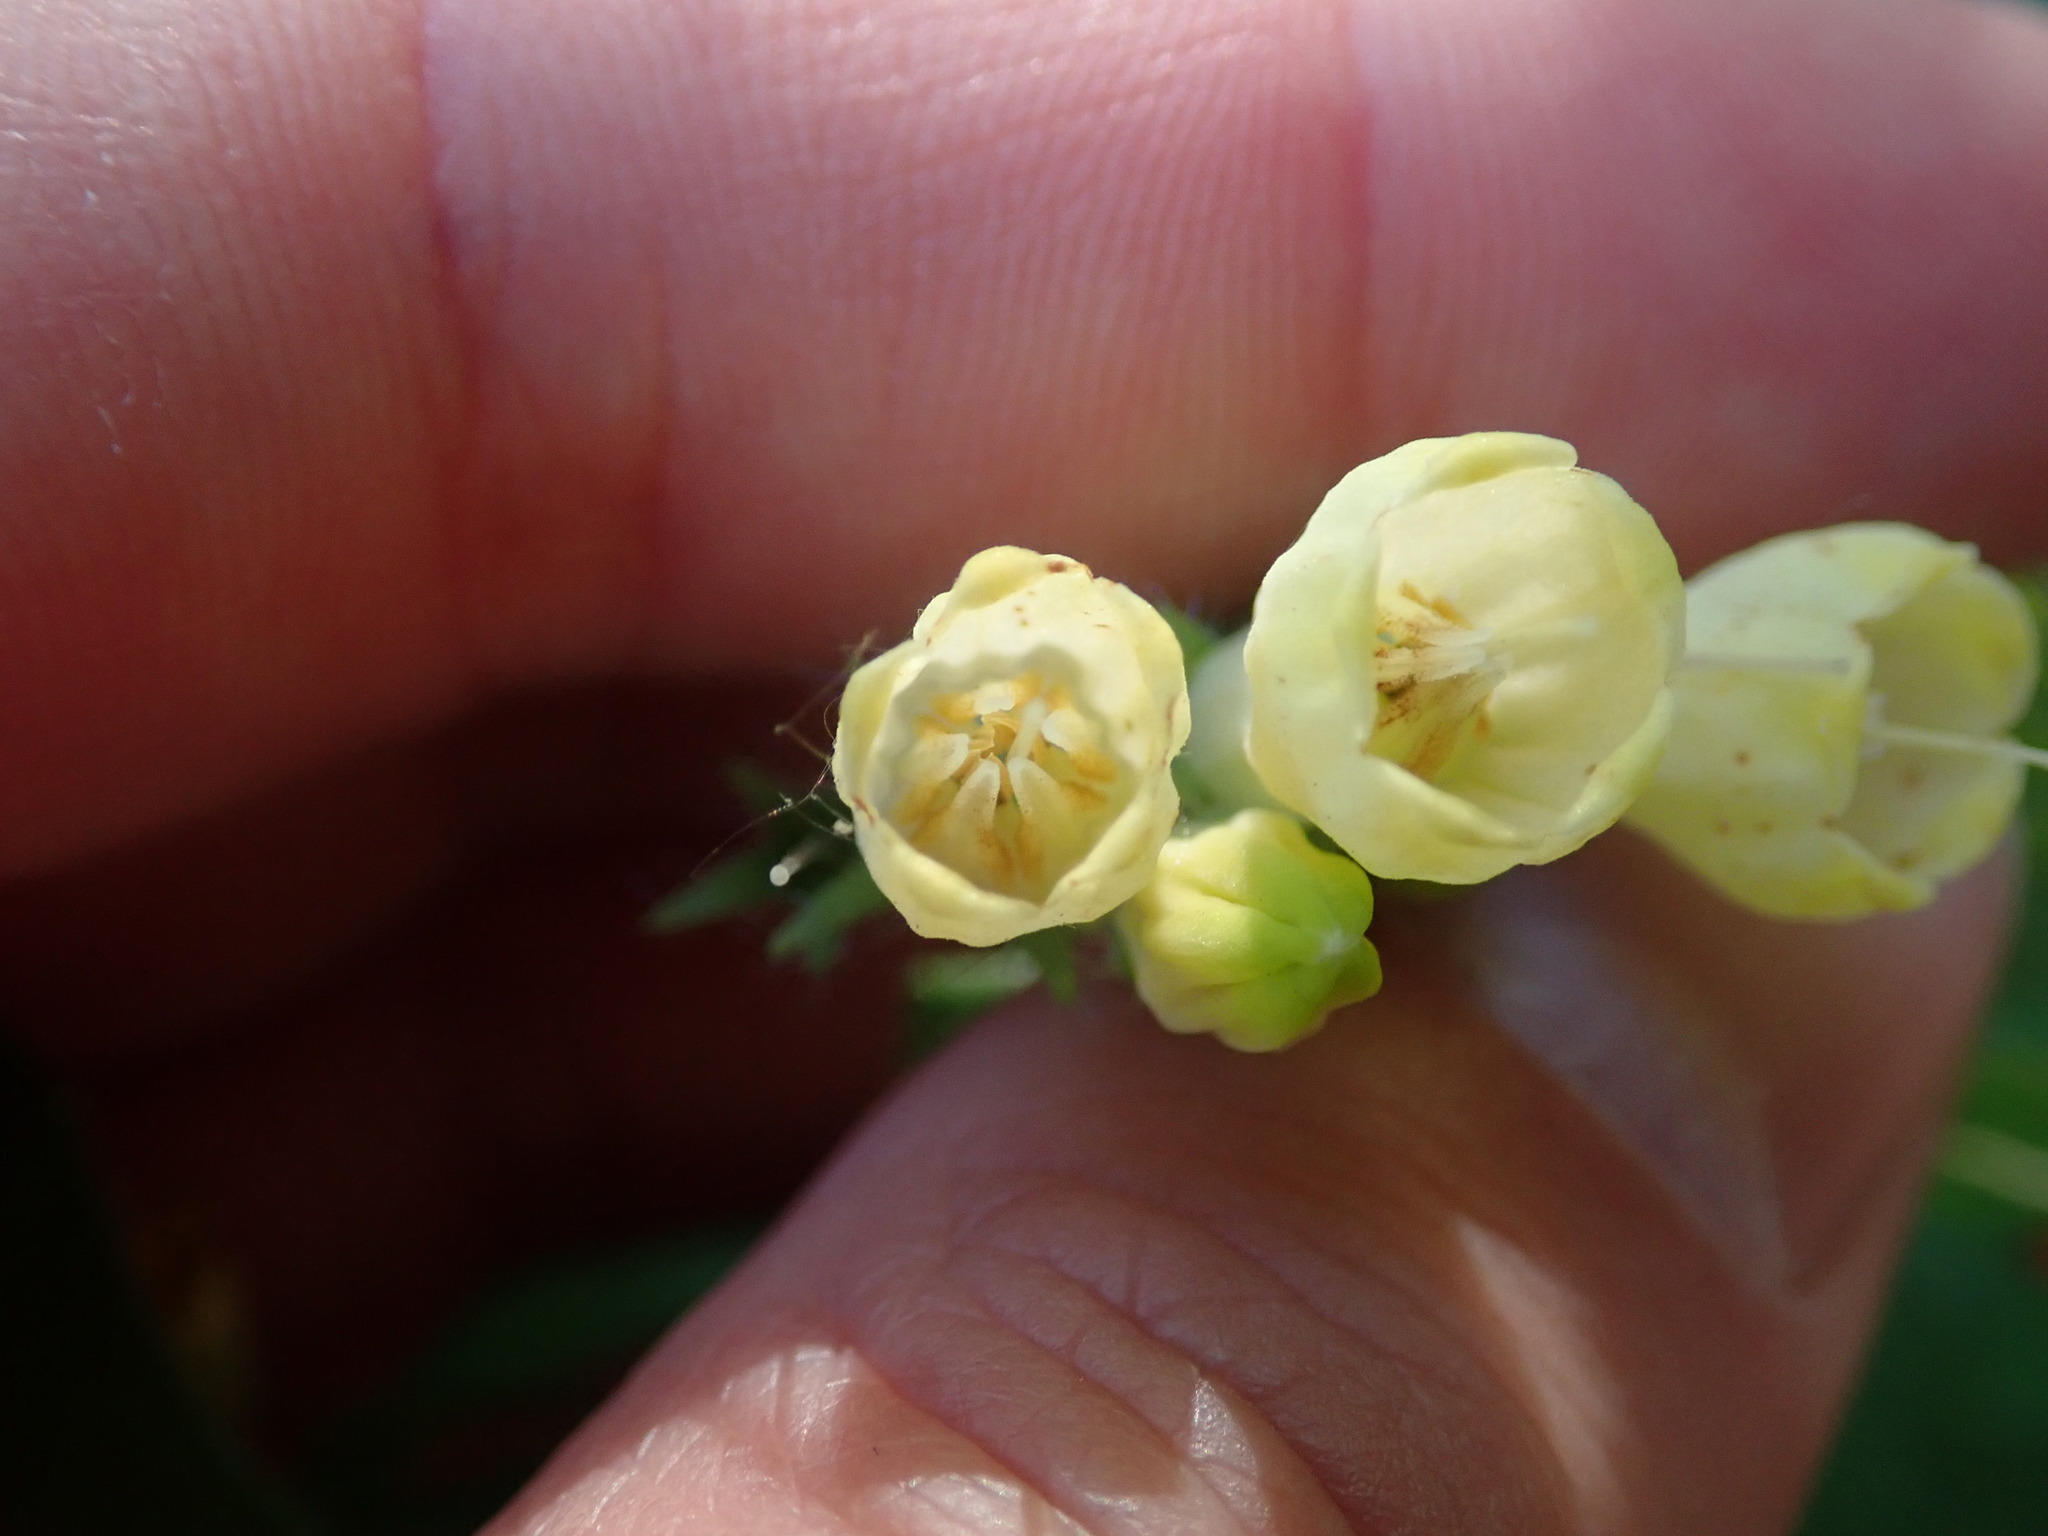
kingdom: Plantae
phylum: Tracheophyta
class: Magnoliopsida
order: Boraginales
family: Boraginaceae
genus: Symphytum
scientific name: Symphytum tuberosum
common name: Tuberous comfrey
